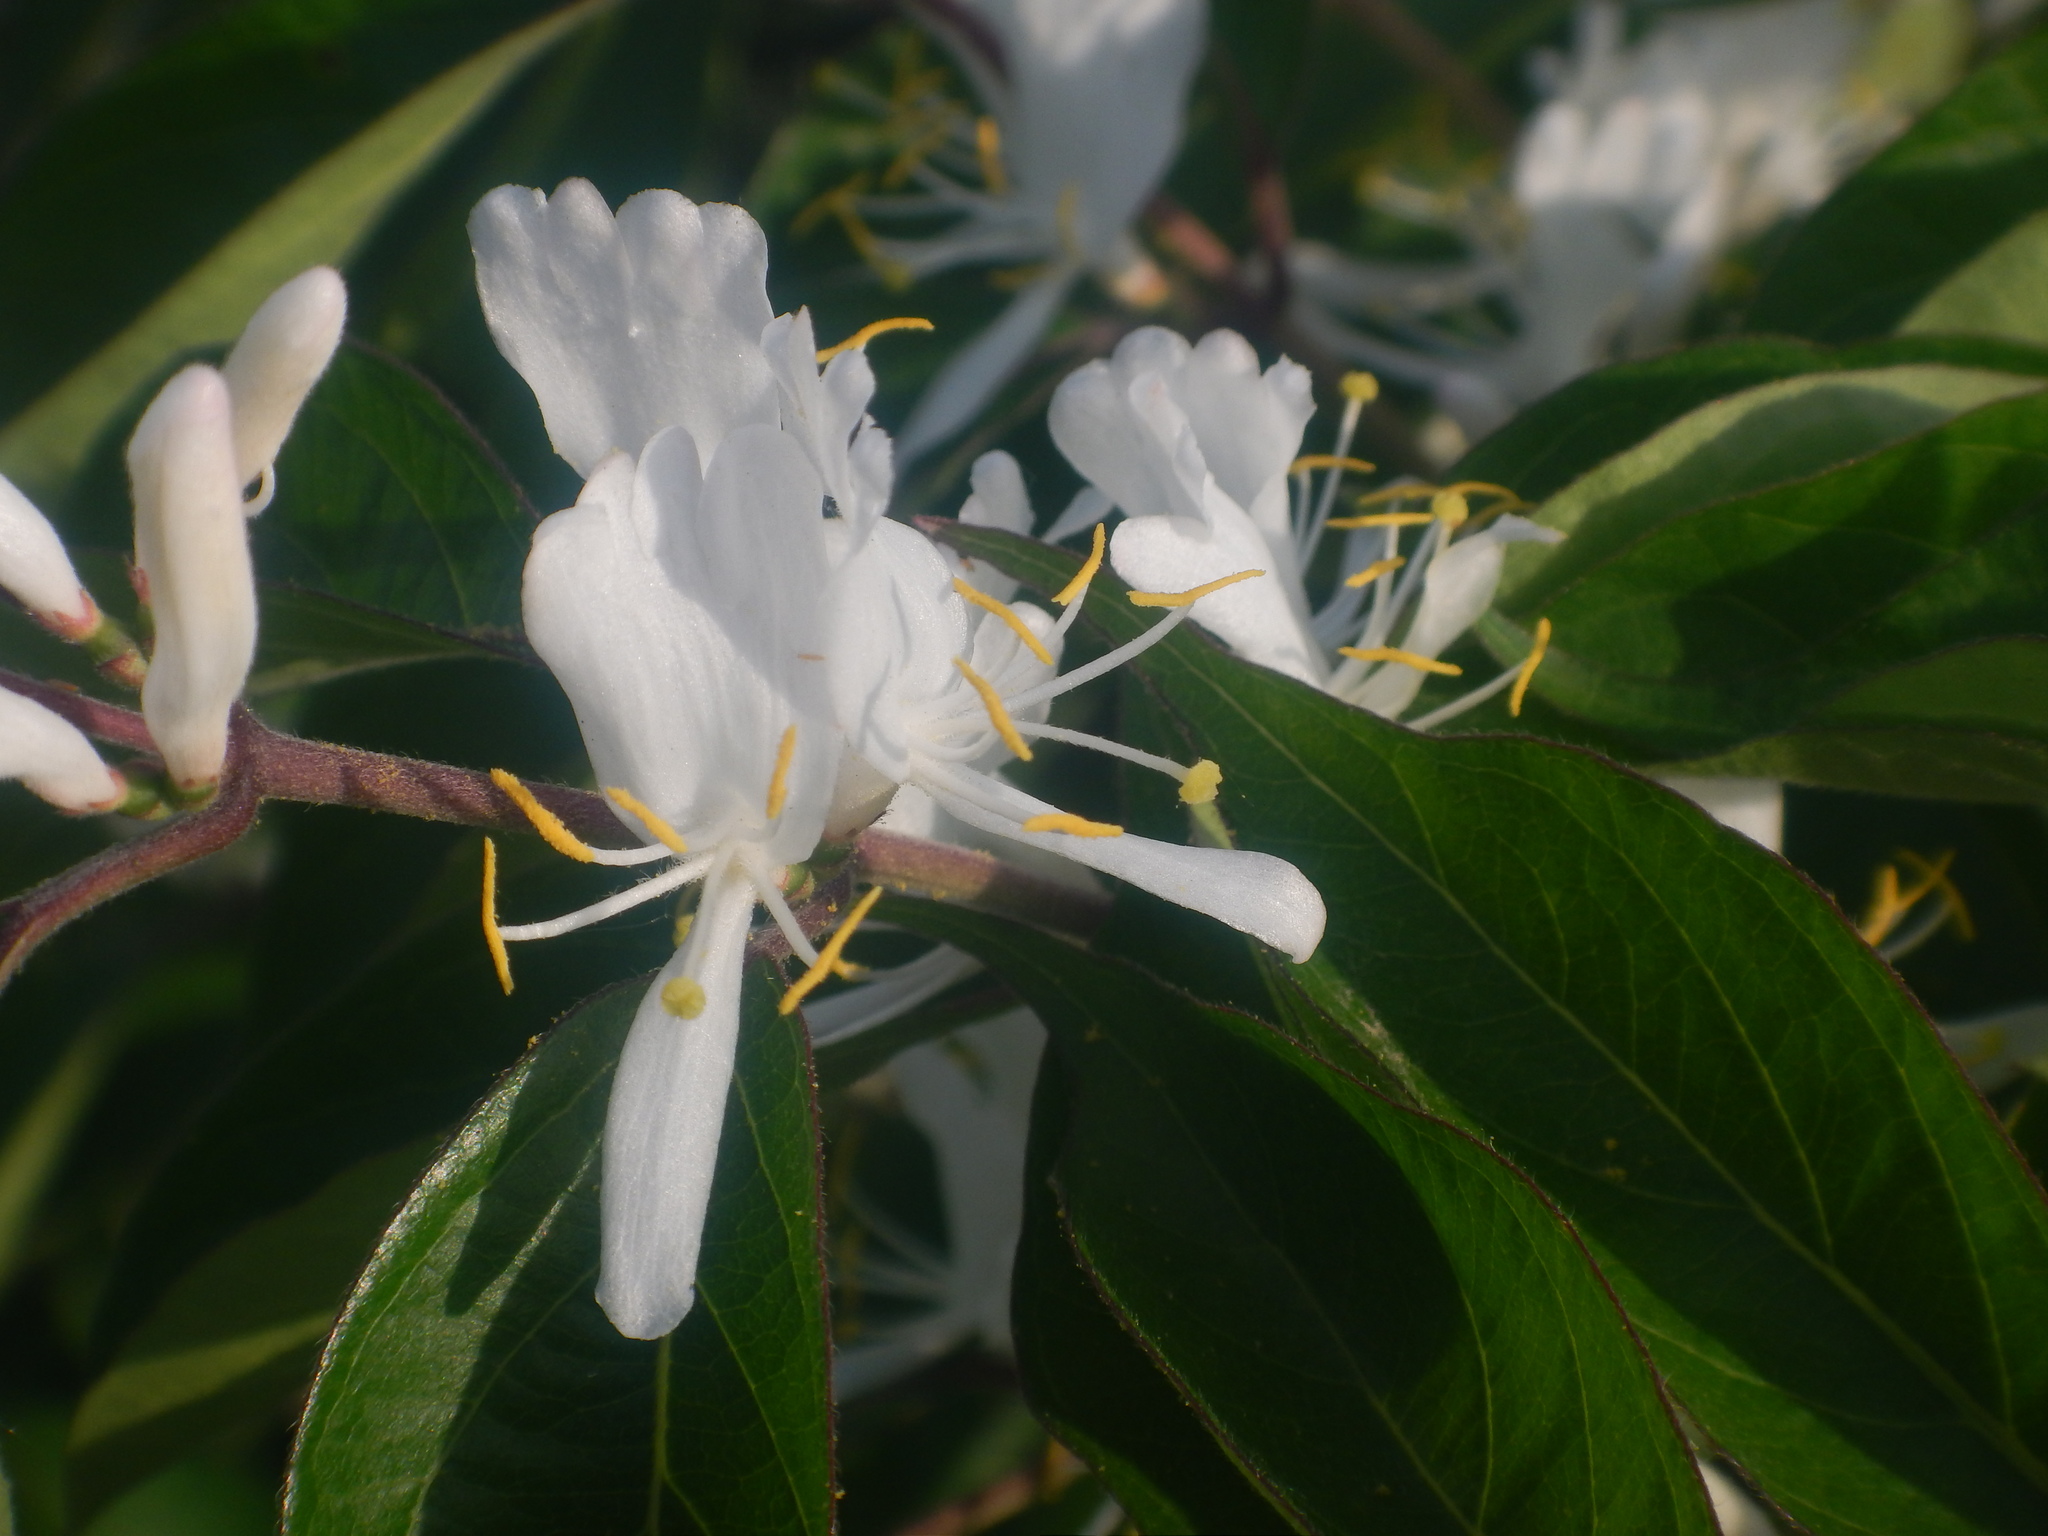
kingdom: Plantae
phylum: Tracheophyta
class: Magnoliopsida
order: Dipsacales
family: Caprifoliaceae
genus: Lonicera
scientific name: Lonicera maackii
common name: Amur honeysuckle
